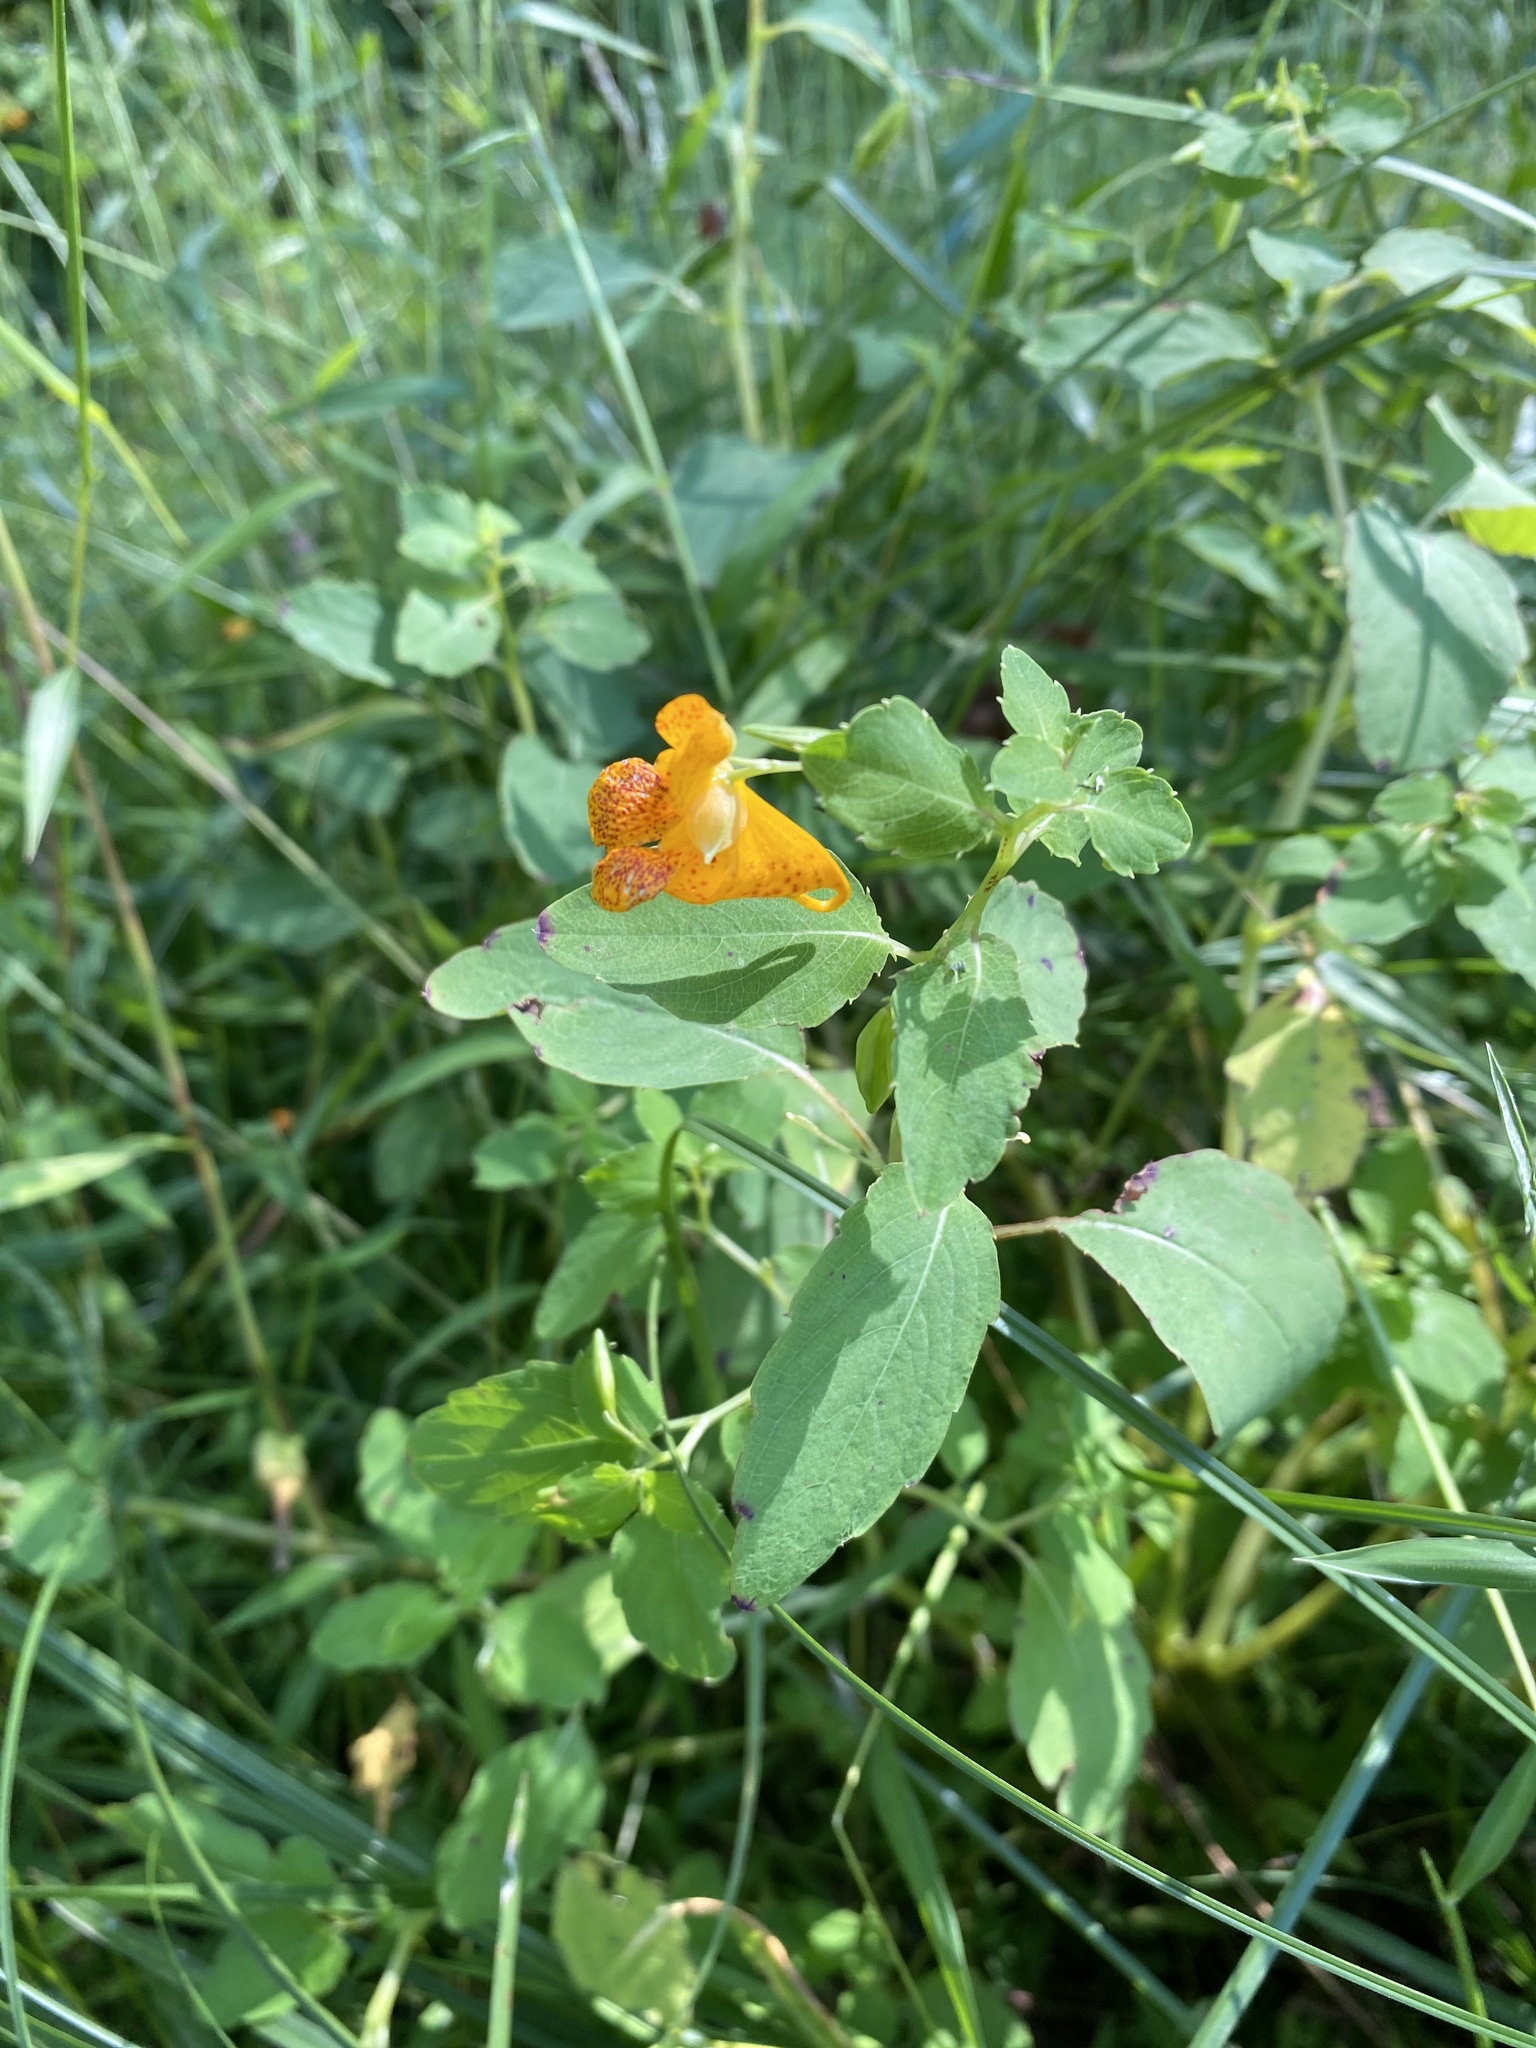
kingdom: Plantae
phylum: Tracheophyta
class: Magnoliopsida
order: Ericales
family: Balsaminaceae
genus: Impatiens
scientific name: Impatiens capensis
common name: Orange balsam
